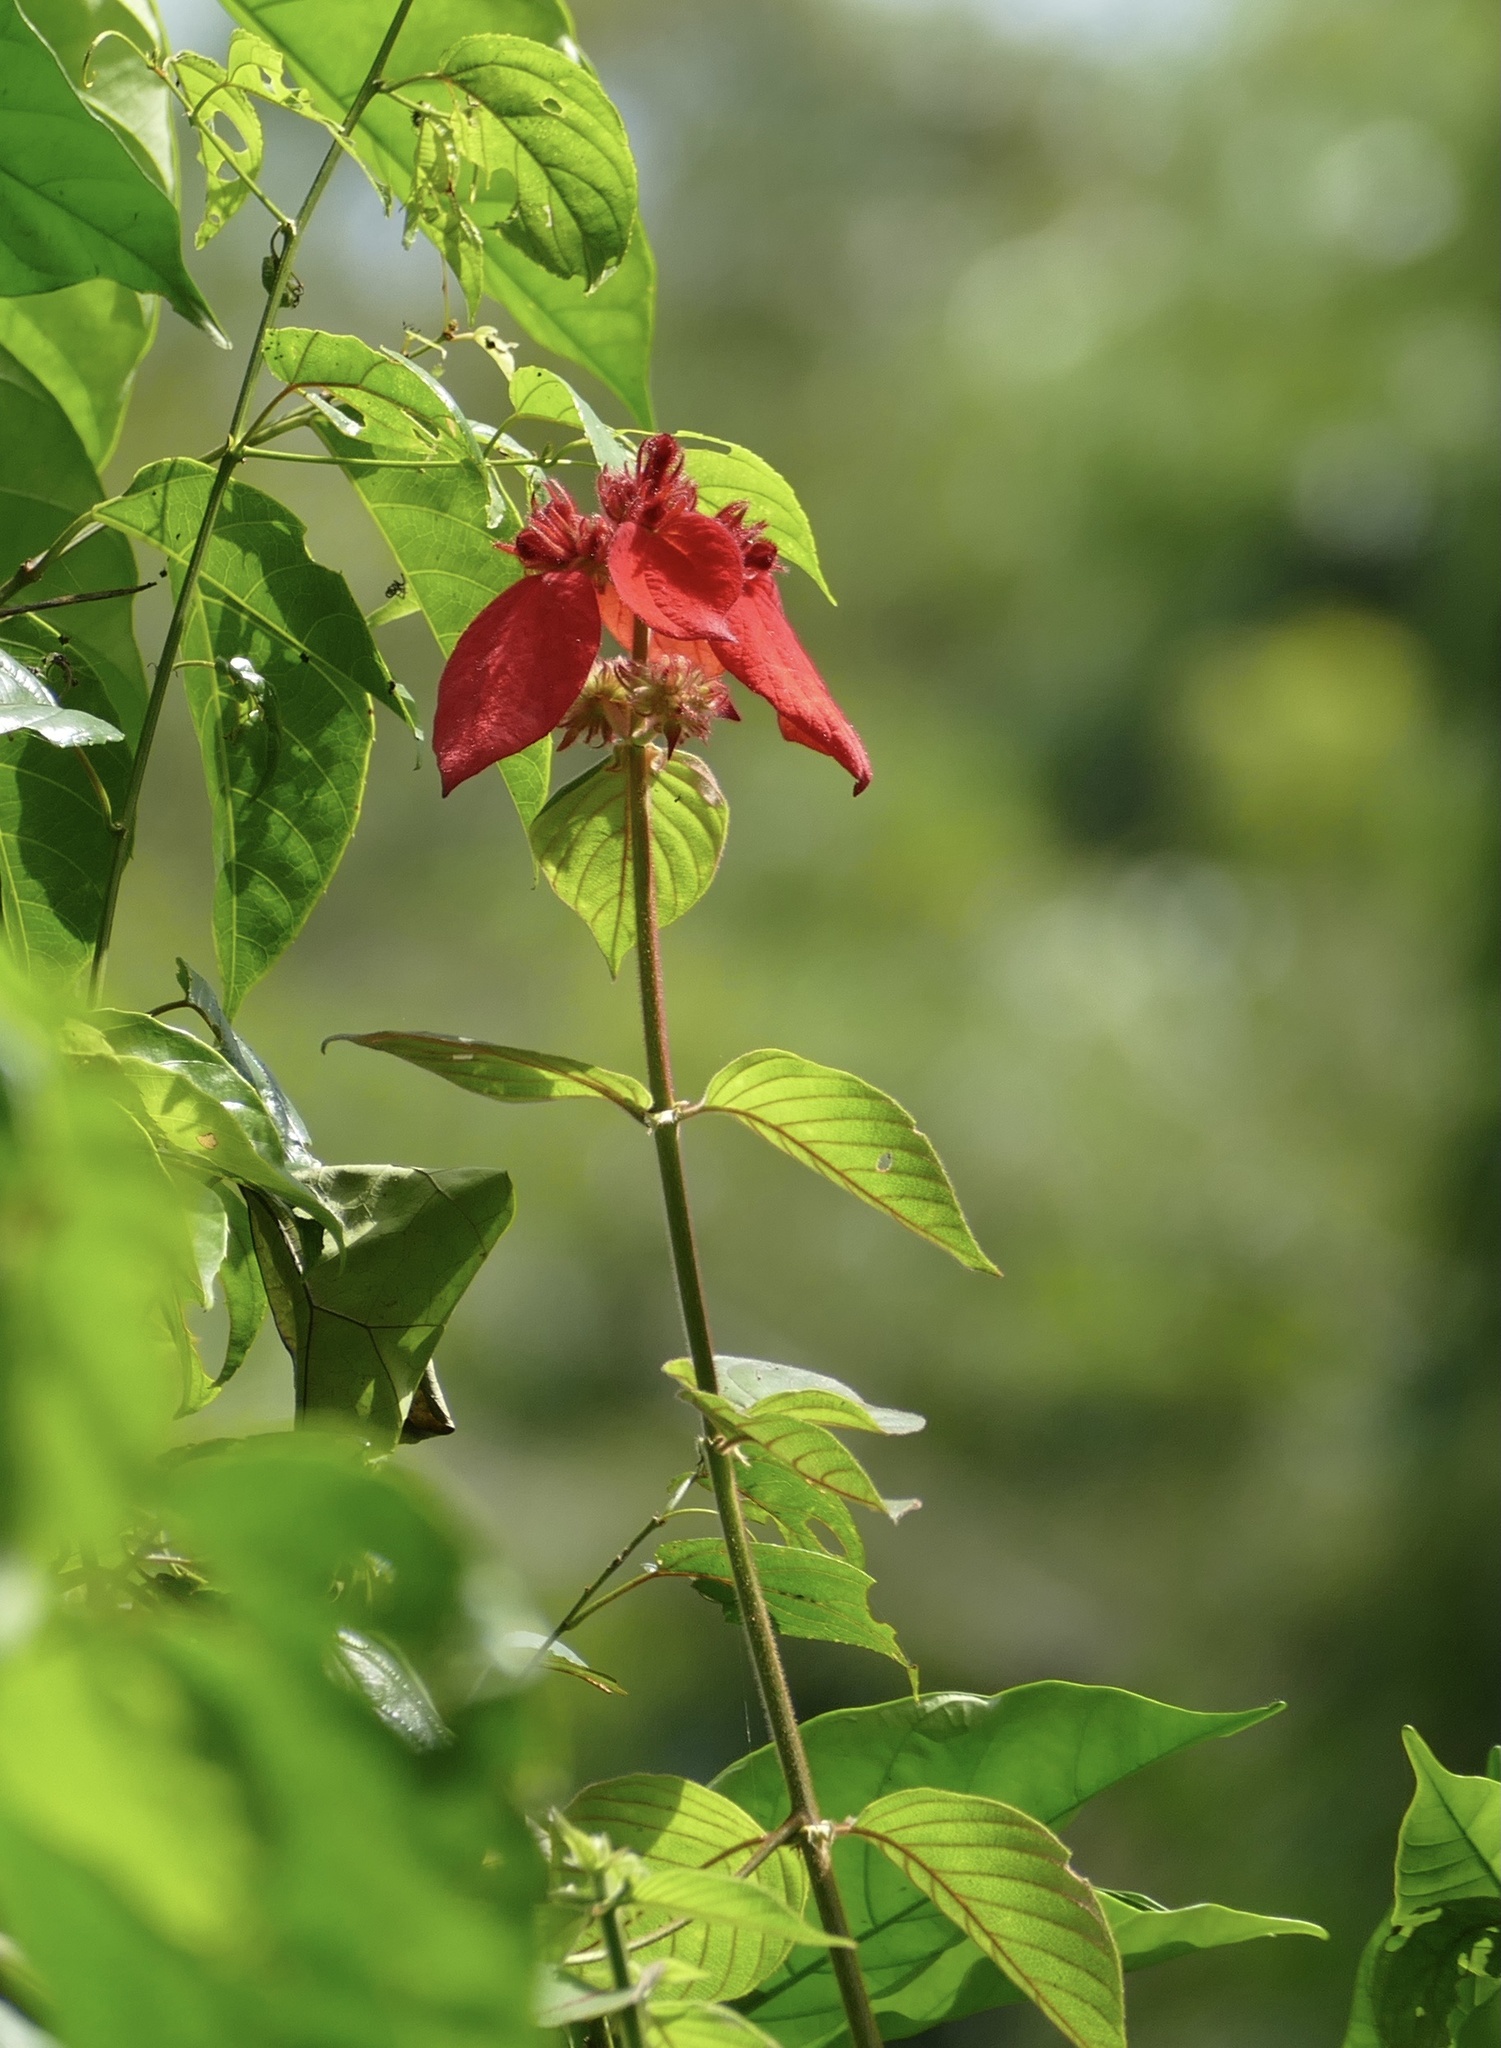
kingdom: Plantae
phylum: Tracheophyta
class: Magnoliopsida
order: Gentianales
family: Rubiaceae
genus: Mussaenda
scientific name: Mussaenda erythrophylla
